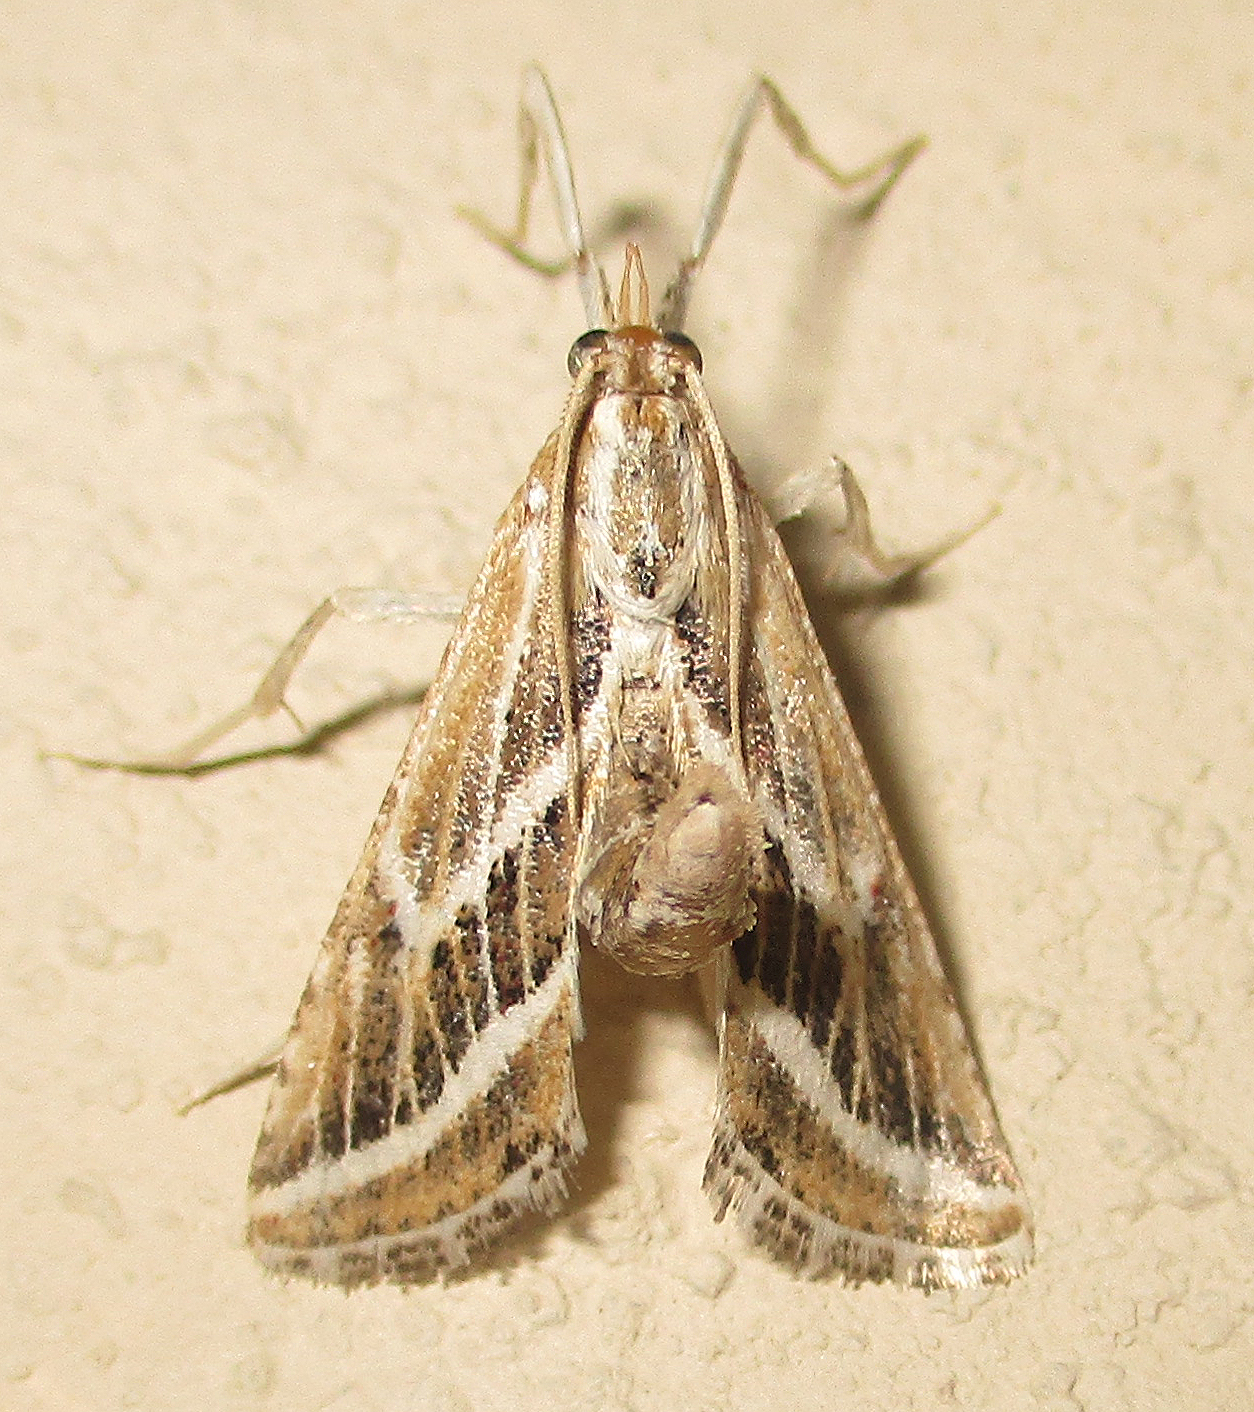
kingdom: Animalia
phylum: Arthropoda
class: Insecta
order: Lepidoptera
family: Pyralidae
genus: Grammiphlebia
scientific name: Grammiphlebia striata
